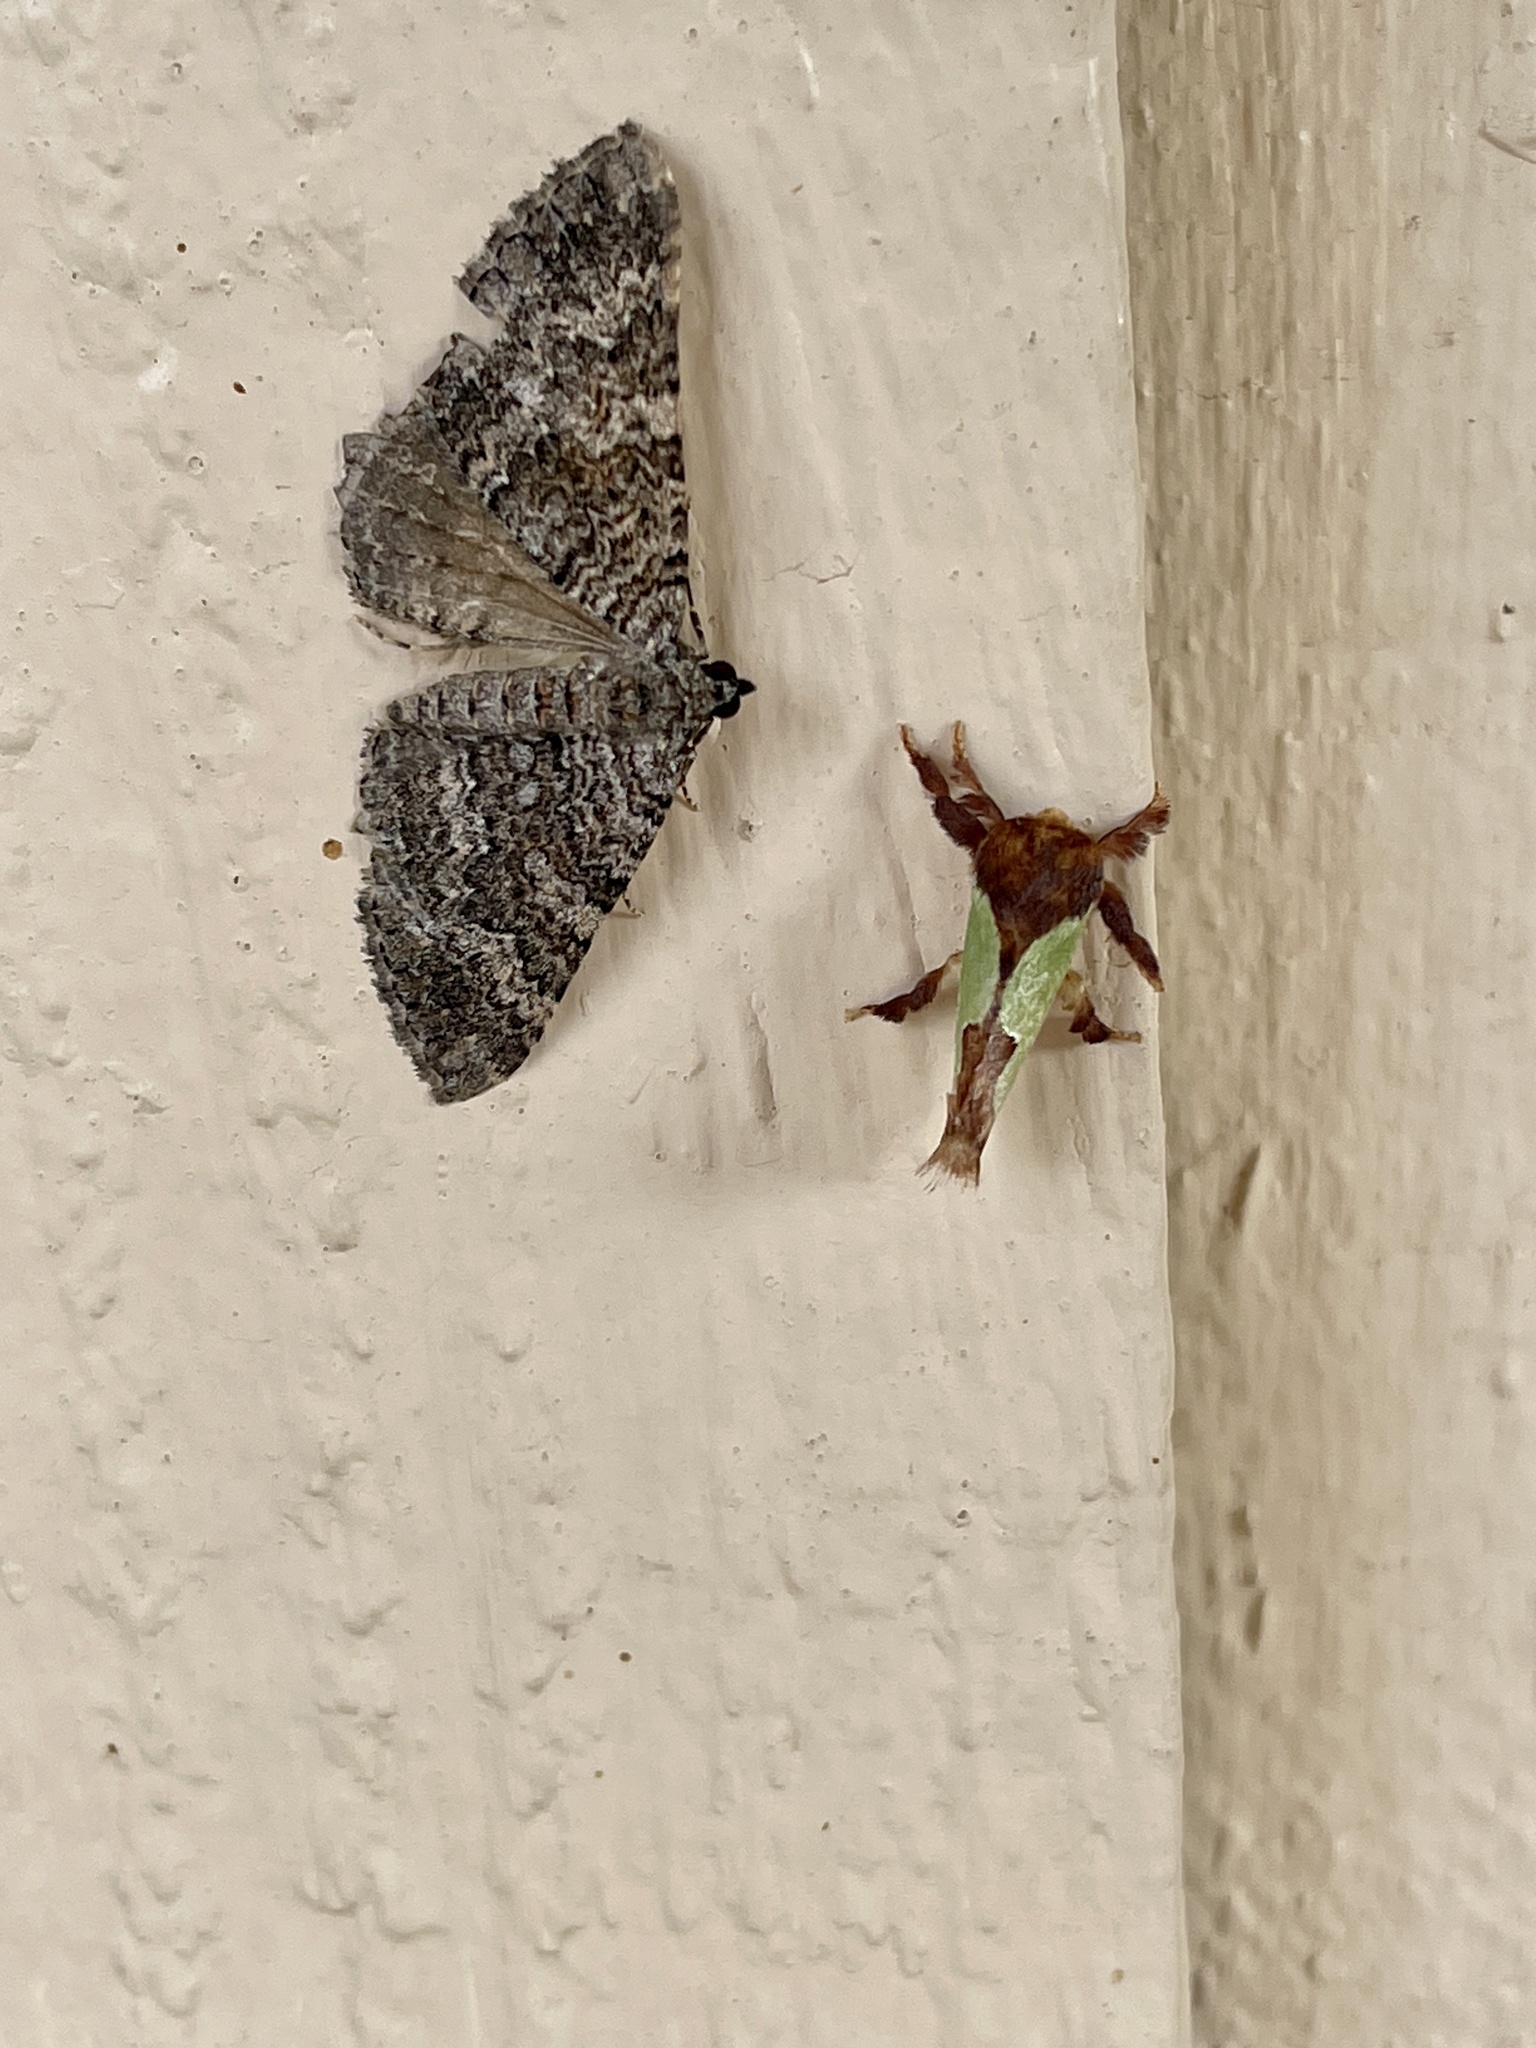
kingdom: Animalia
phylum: Arthropoda
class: Insecta
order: Lepidoptera
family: Limacodidae
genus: Euclea
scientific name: Euclea incisa
